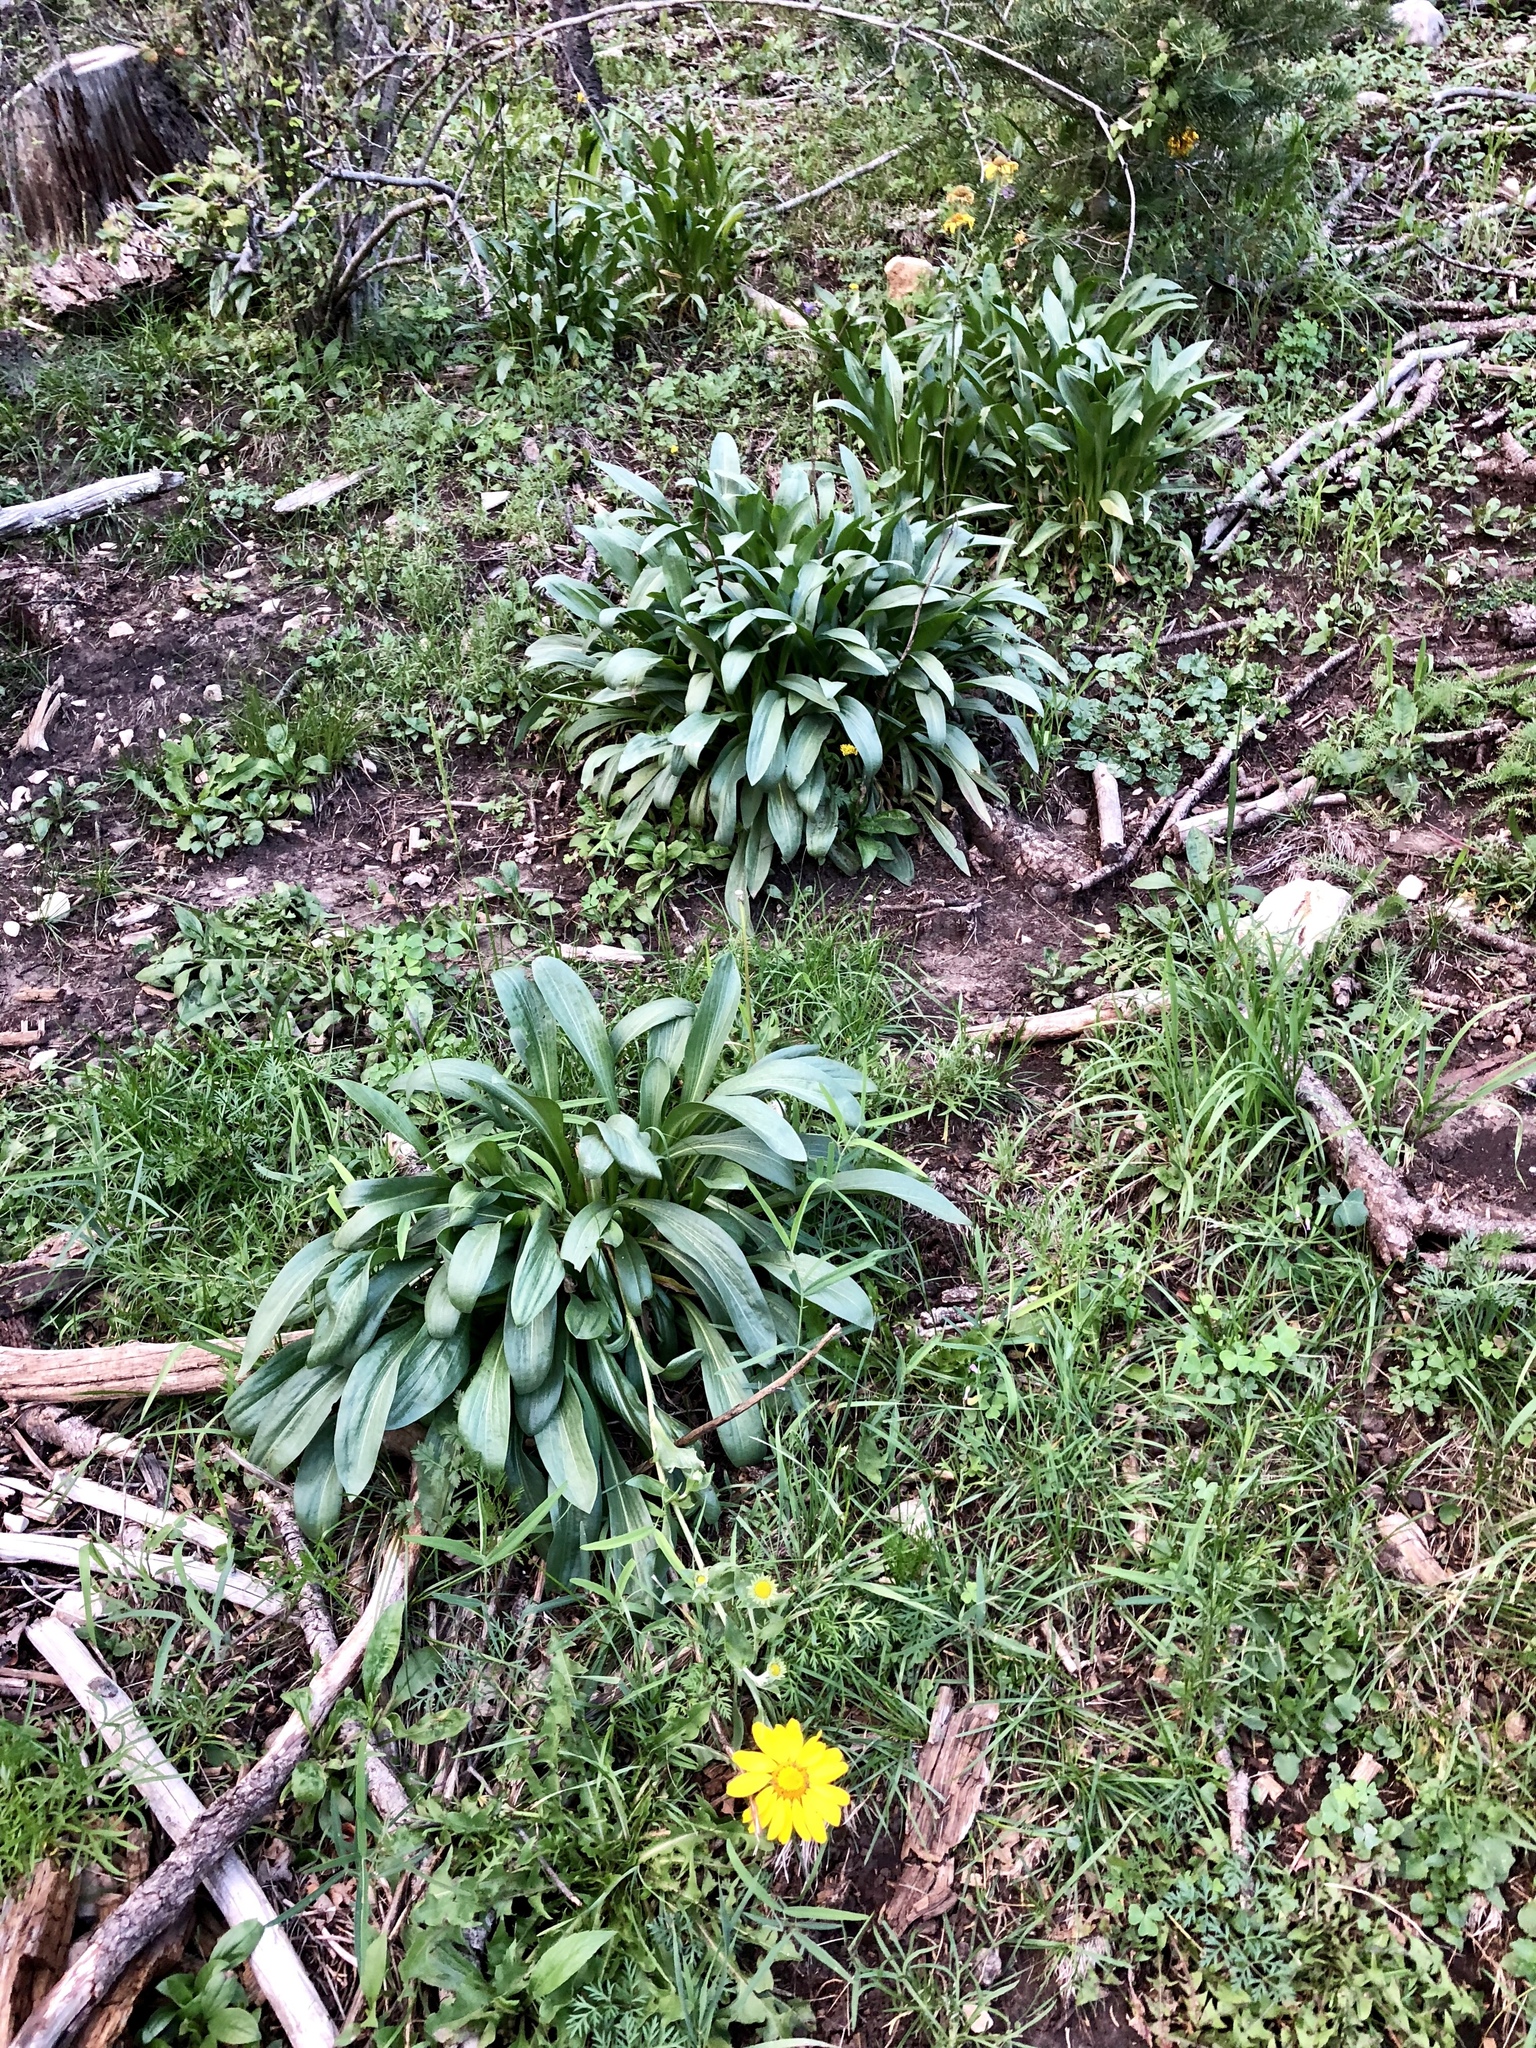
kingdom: Plantae
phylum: Tracheophyta
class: Magnoliopsida
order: Asterales
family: Asteraceae
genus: Hymenoxys
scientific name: Hymenoxys hoopesii
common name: Orange-sneezeweed
